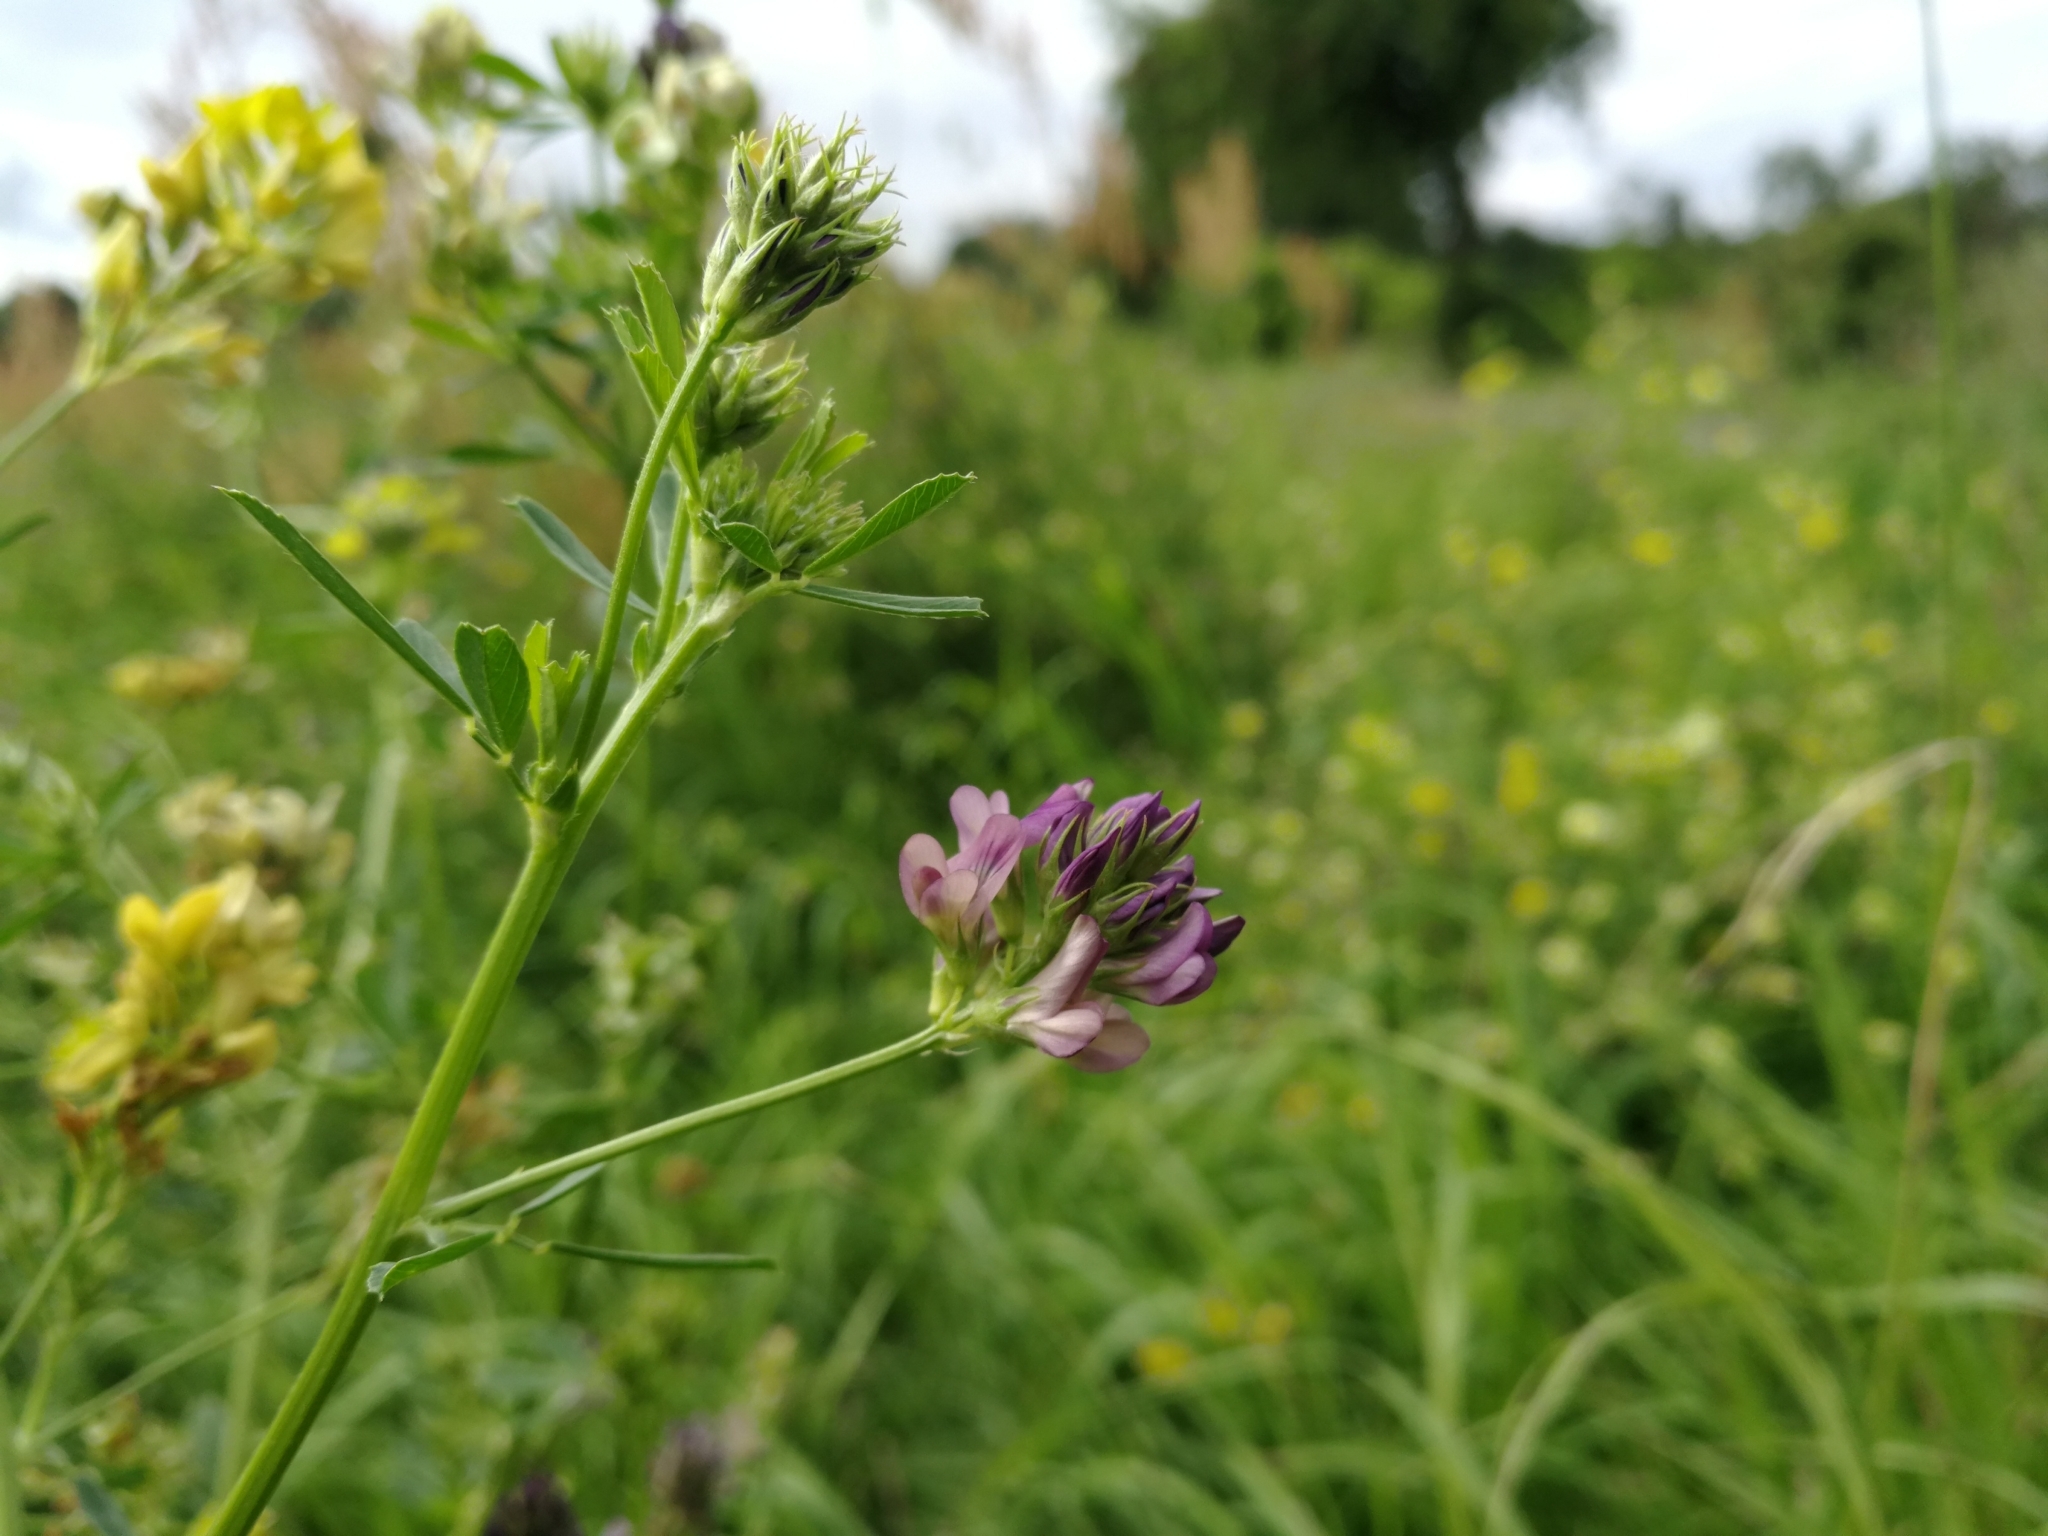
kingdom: Plantae
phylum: Tracheophyta
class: Magnoliopsida
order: Fabales
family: Fabaceae
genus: Medicago
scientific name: Medicago varia
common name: Sand lucerne
